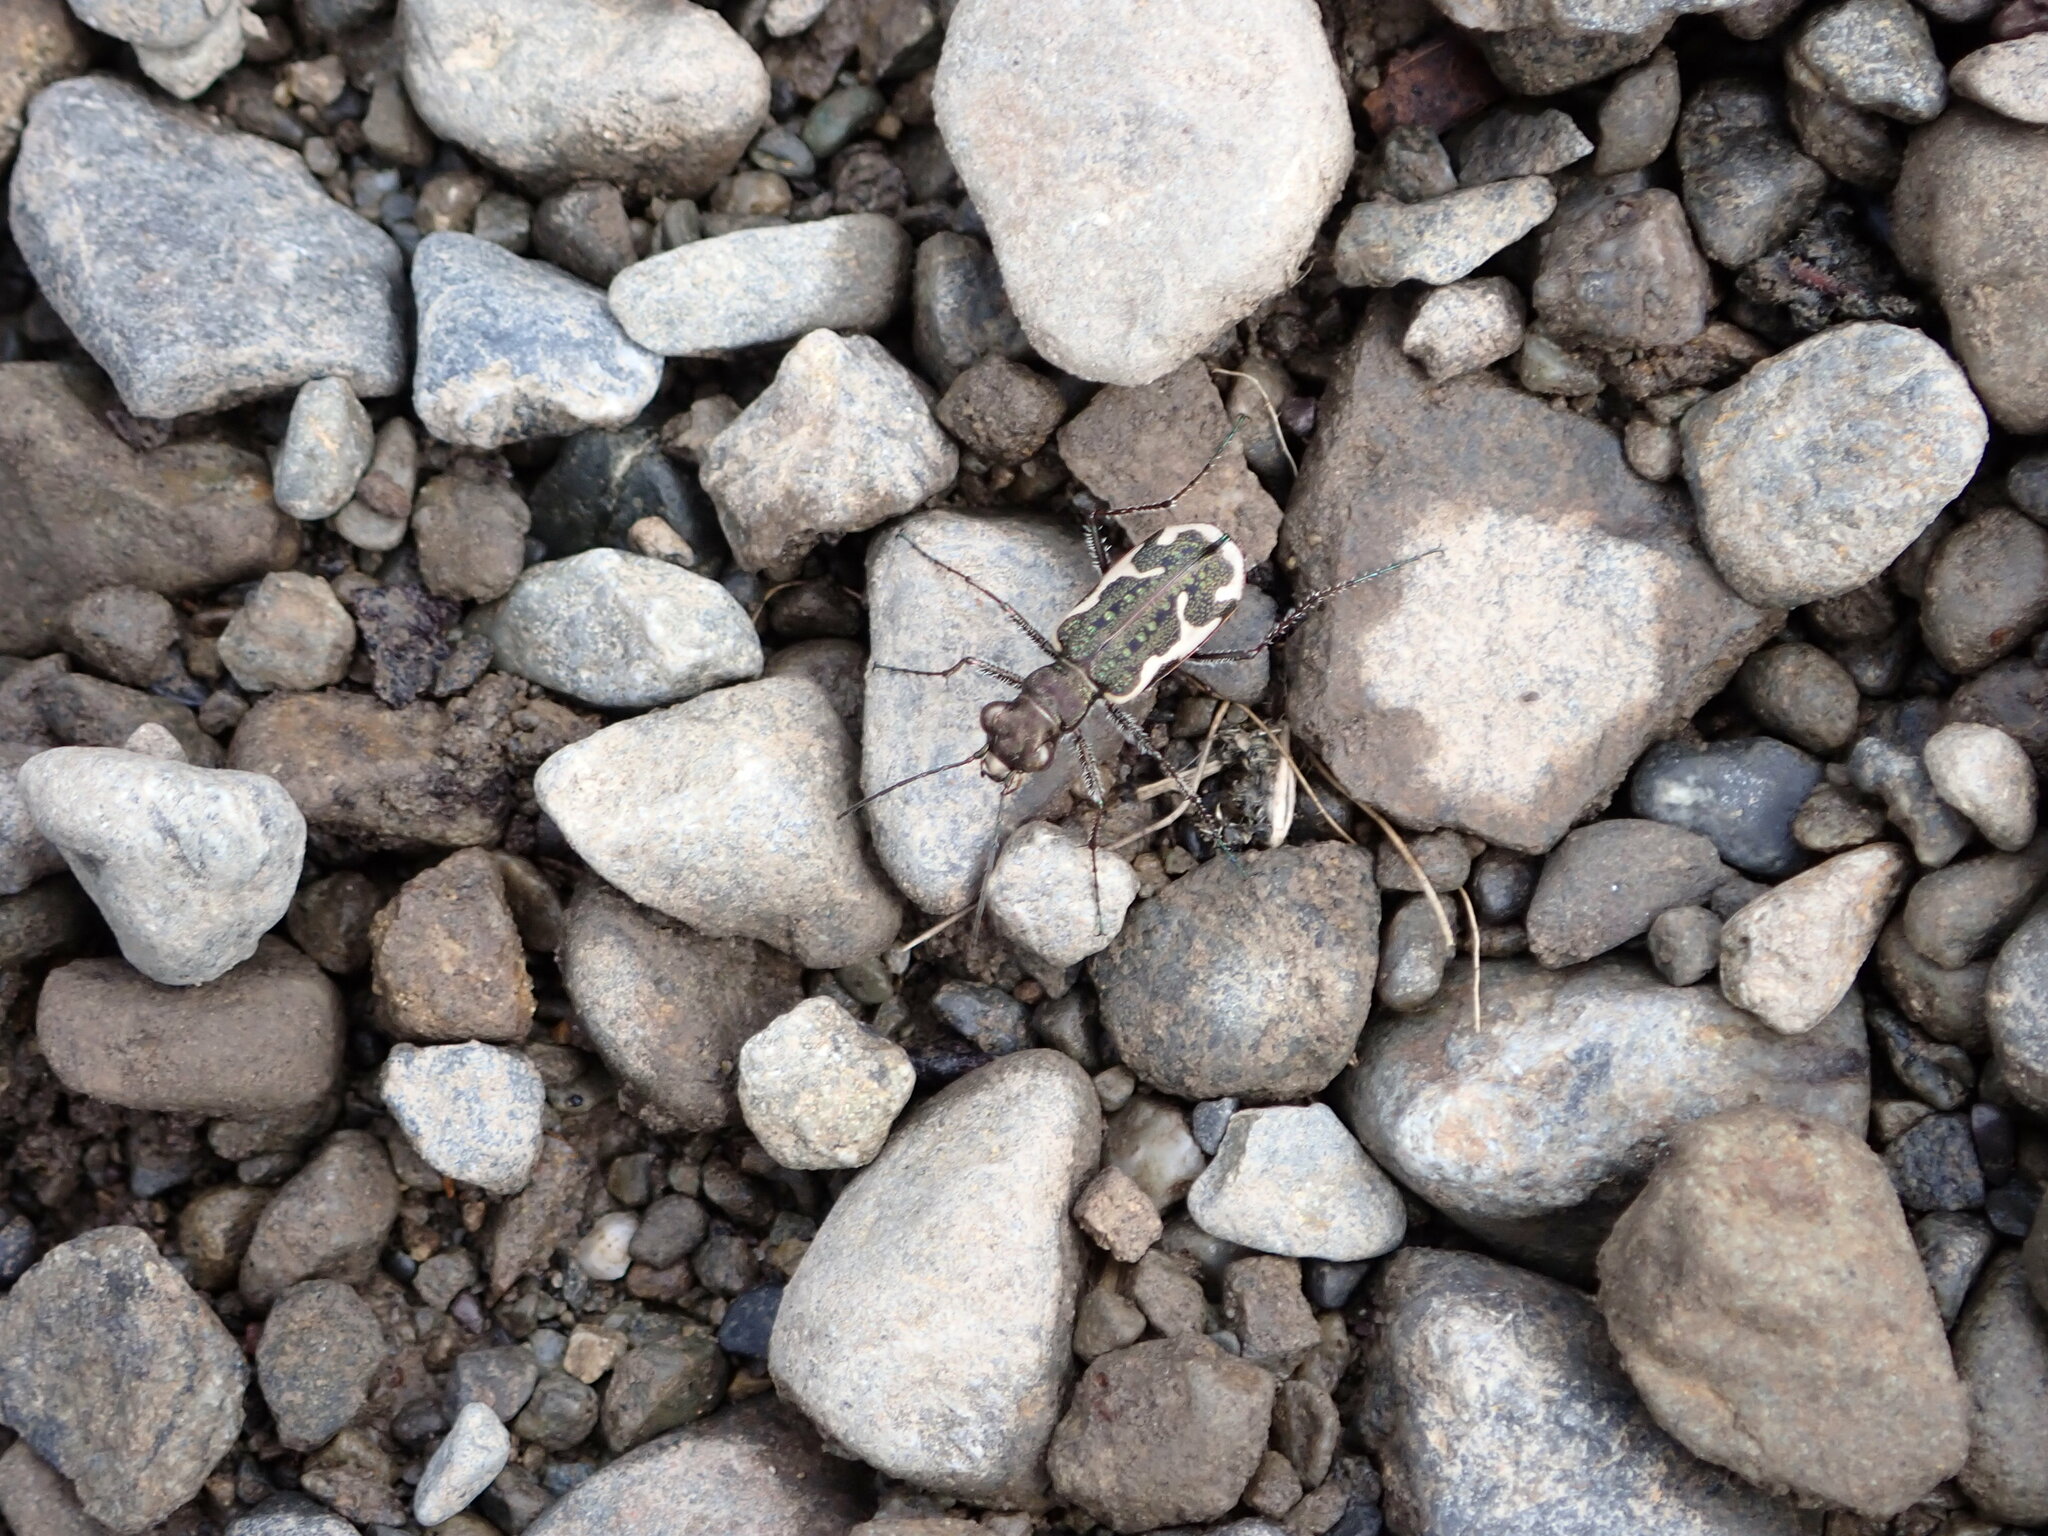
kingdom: Animalia
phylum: Arthropoda
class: Insecta
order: Coleoptera
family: Carabidae
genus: Neocicindela
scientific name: Neocicindela tuberculata
